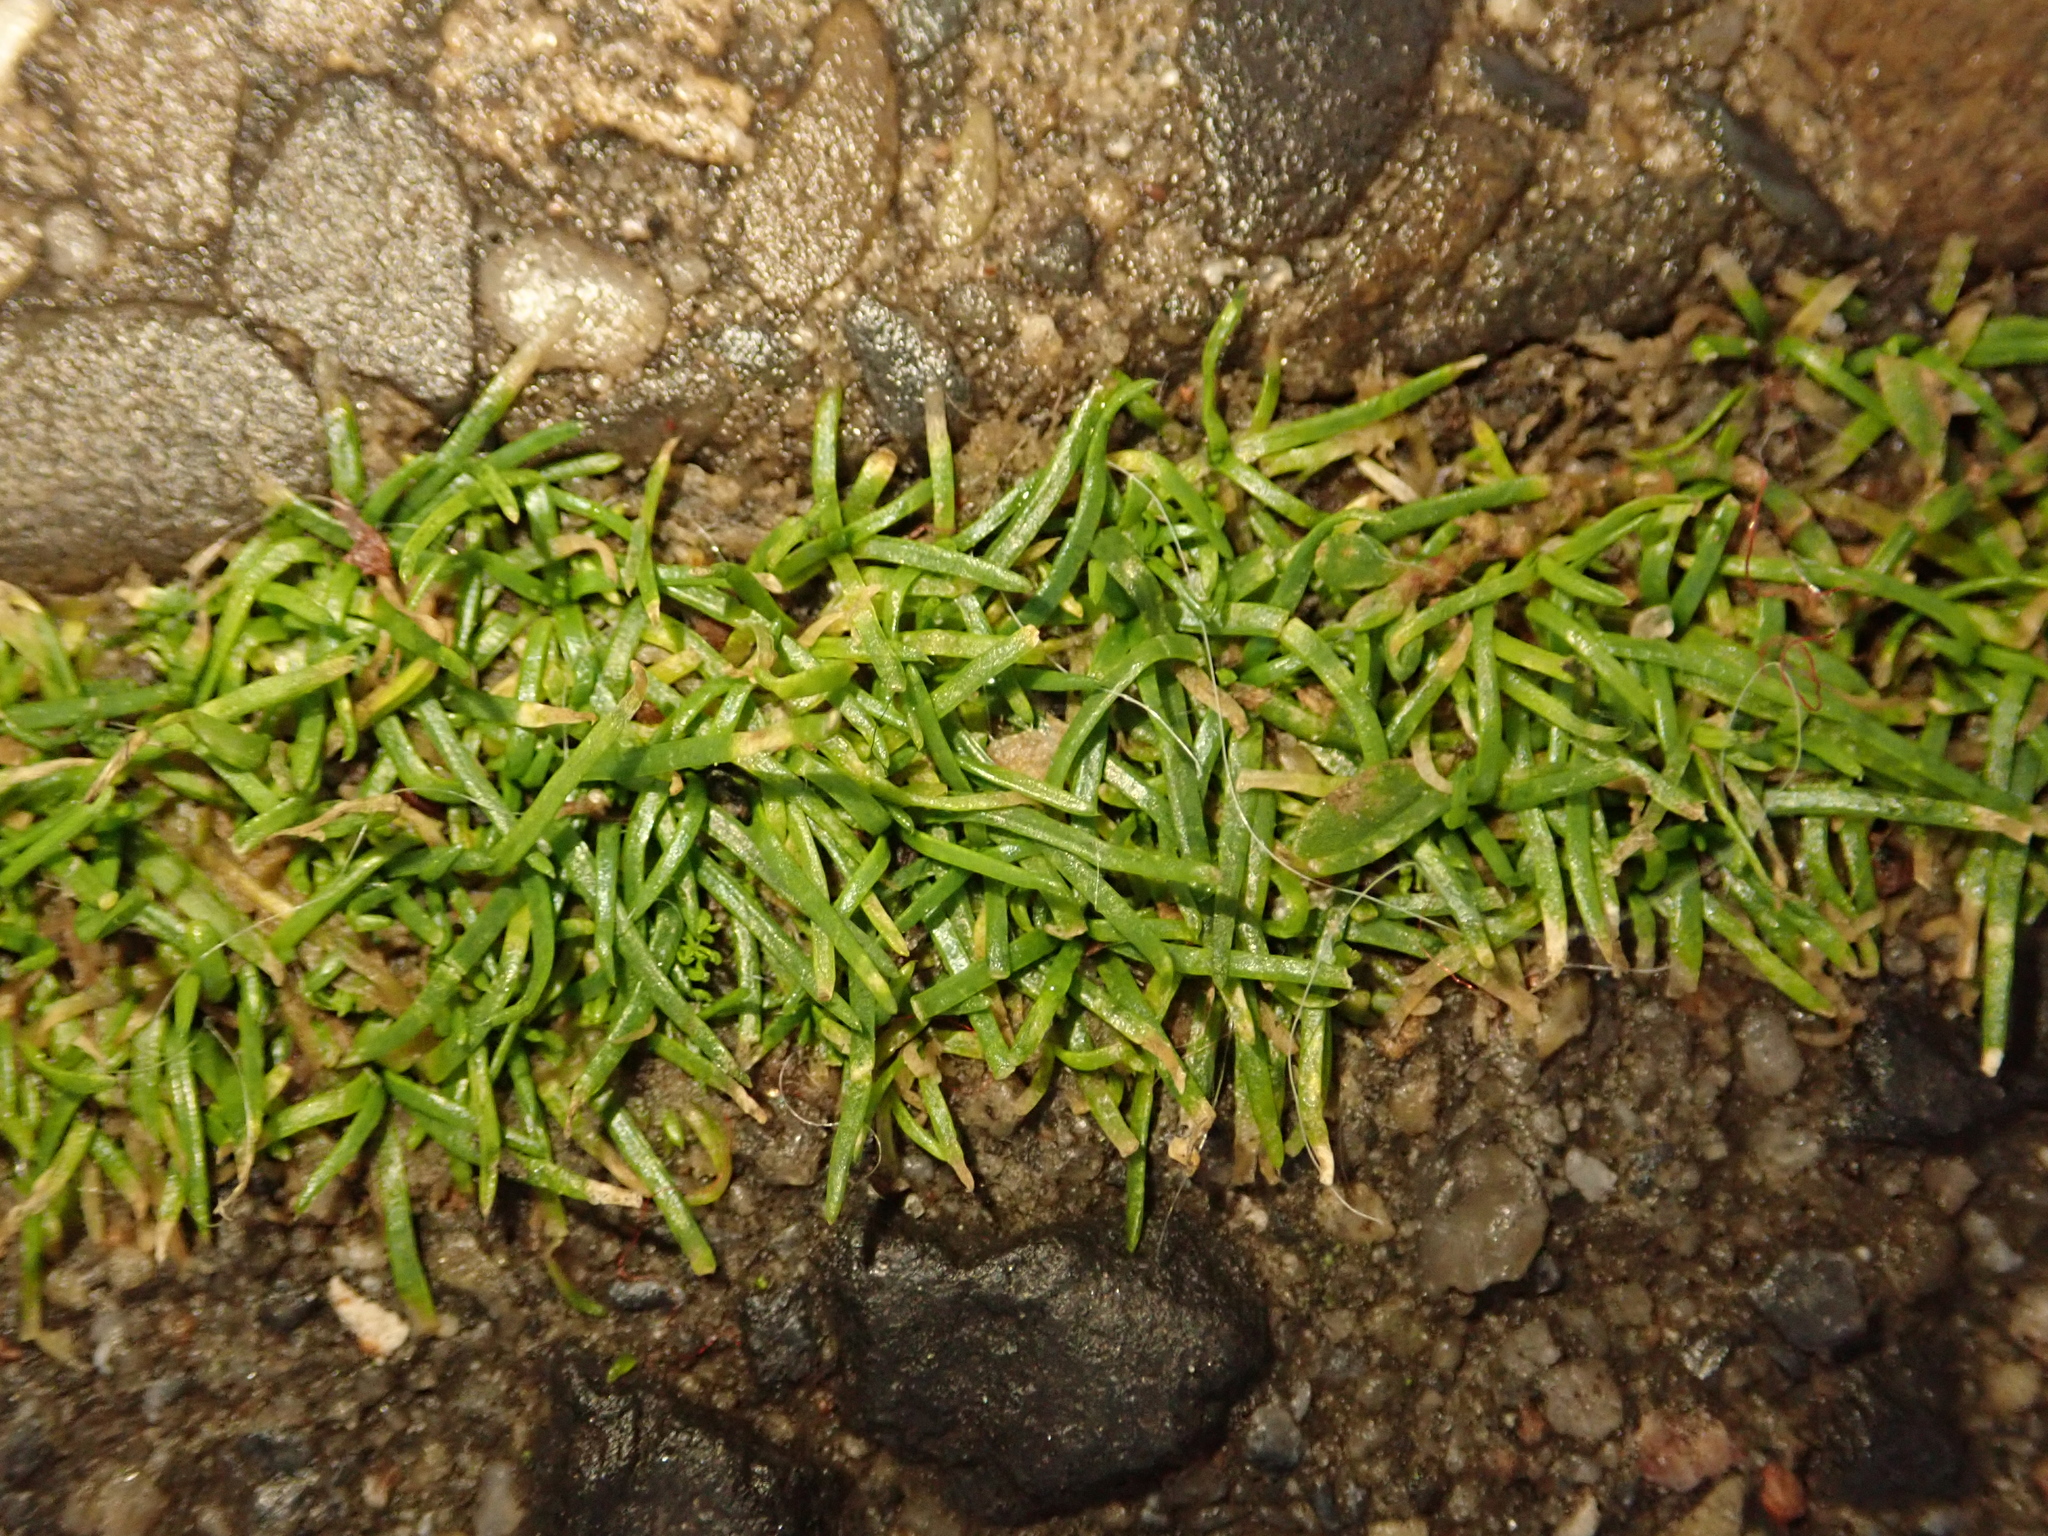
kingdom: Plantae
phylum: Tracheophyta
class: Magnoliopsida
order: Caryophyllales
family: Caryophyllaceae
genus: Sagina
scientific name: Sagina procumbens
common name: Procumbent pearlwort
